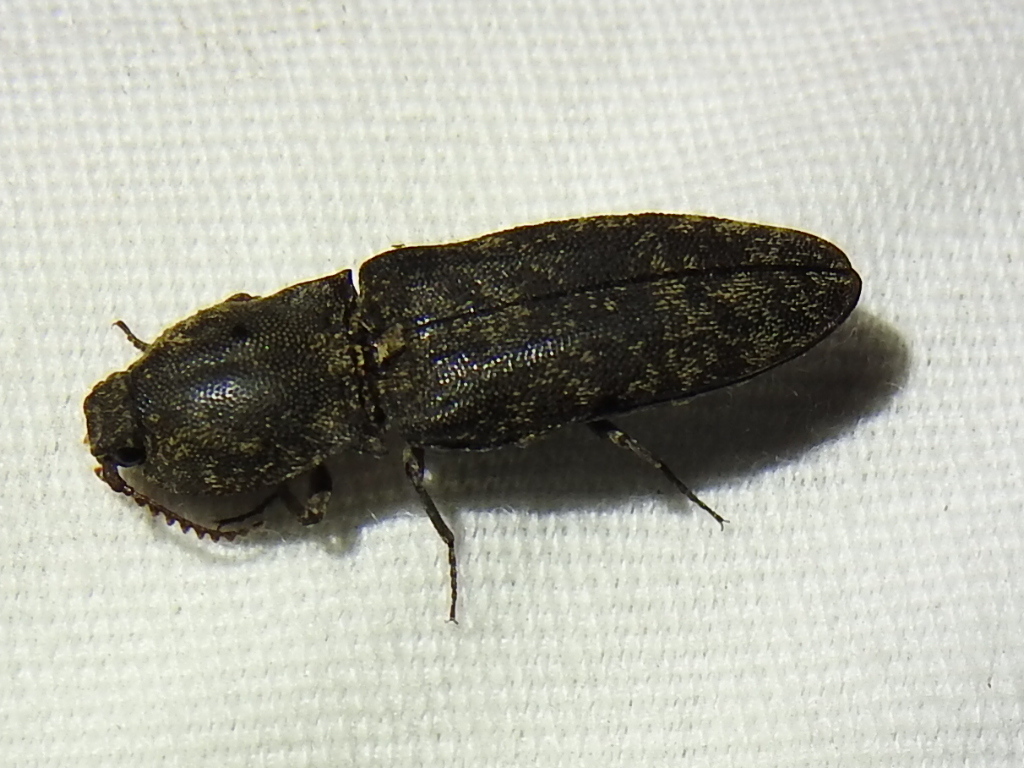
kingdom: Animalia
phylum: Arthropoda
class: Insecta
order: Coleoptera
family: Elateridae
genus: Lacon
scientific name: Lacon marmoratus
